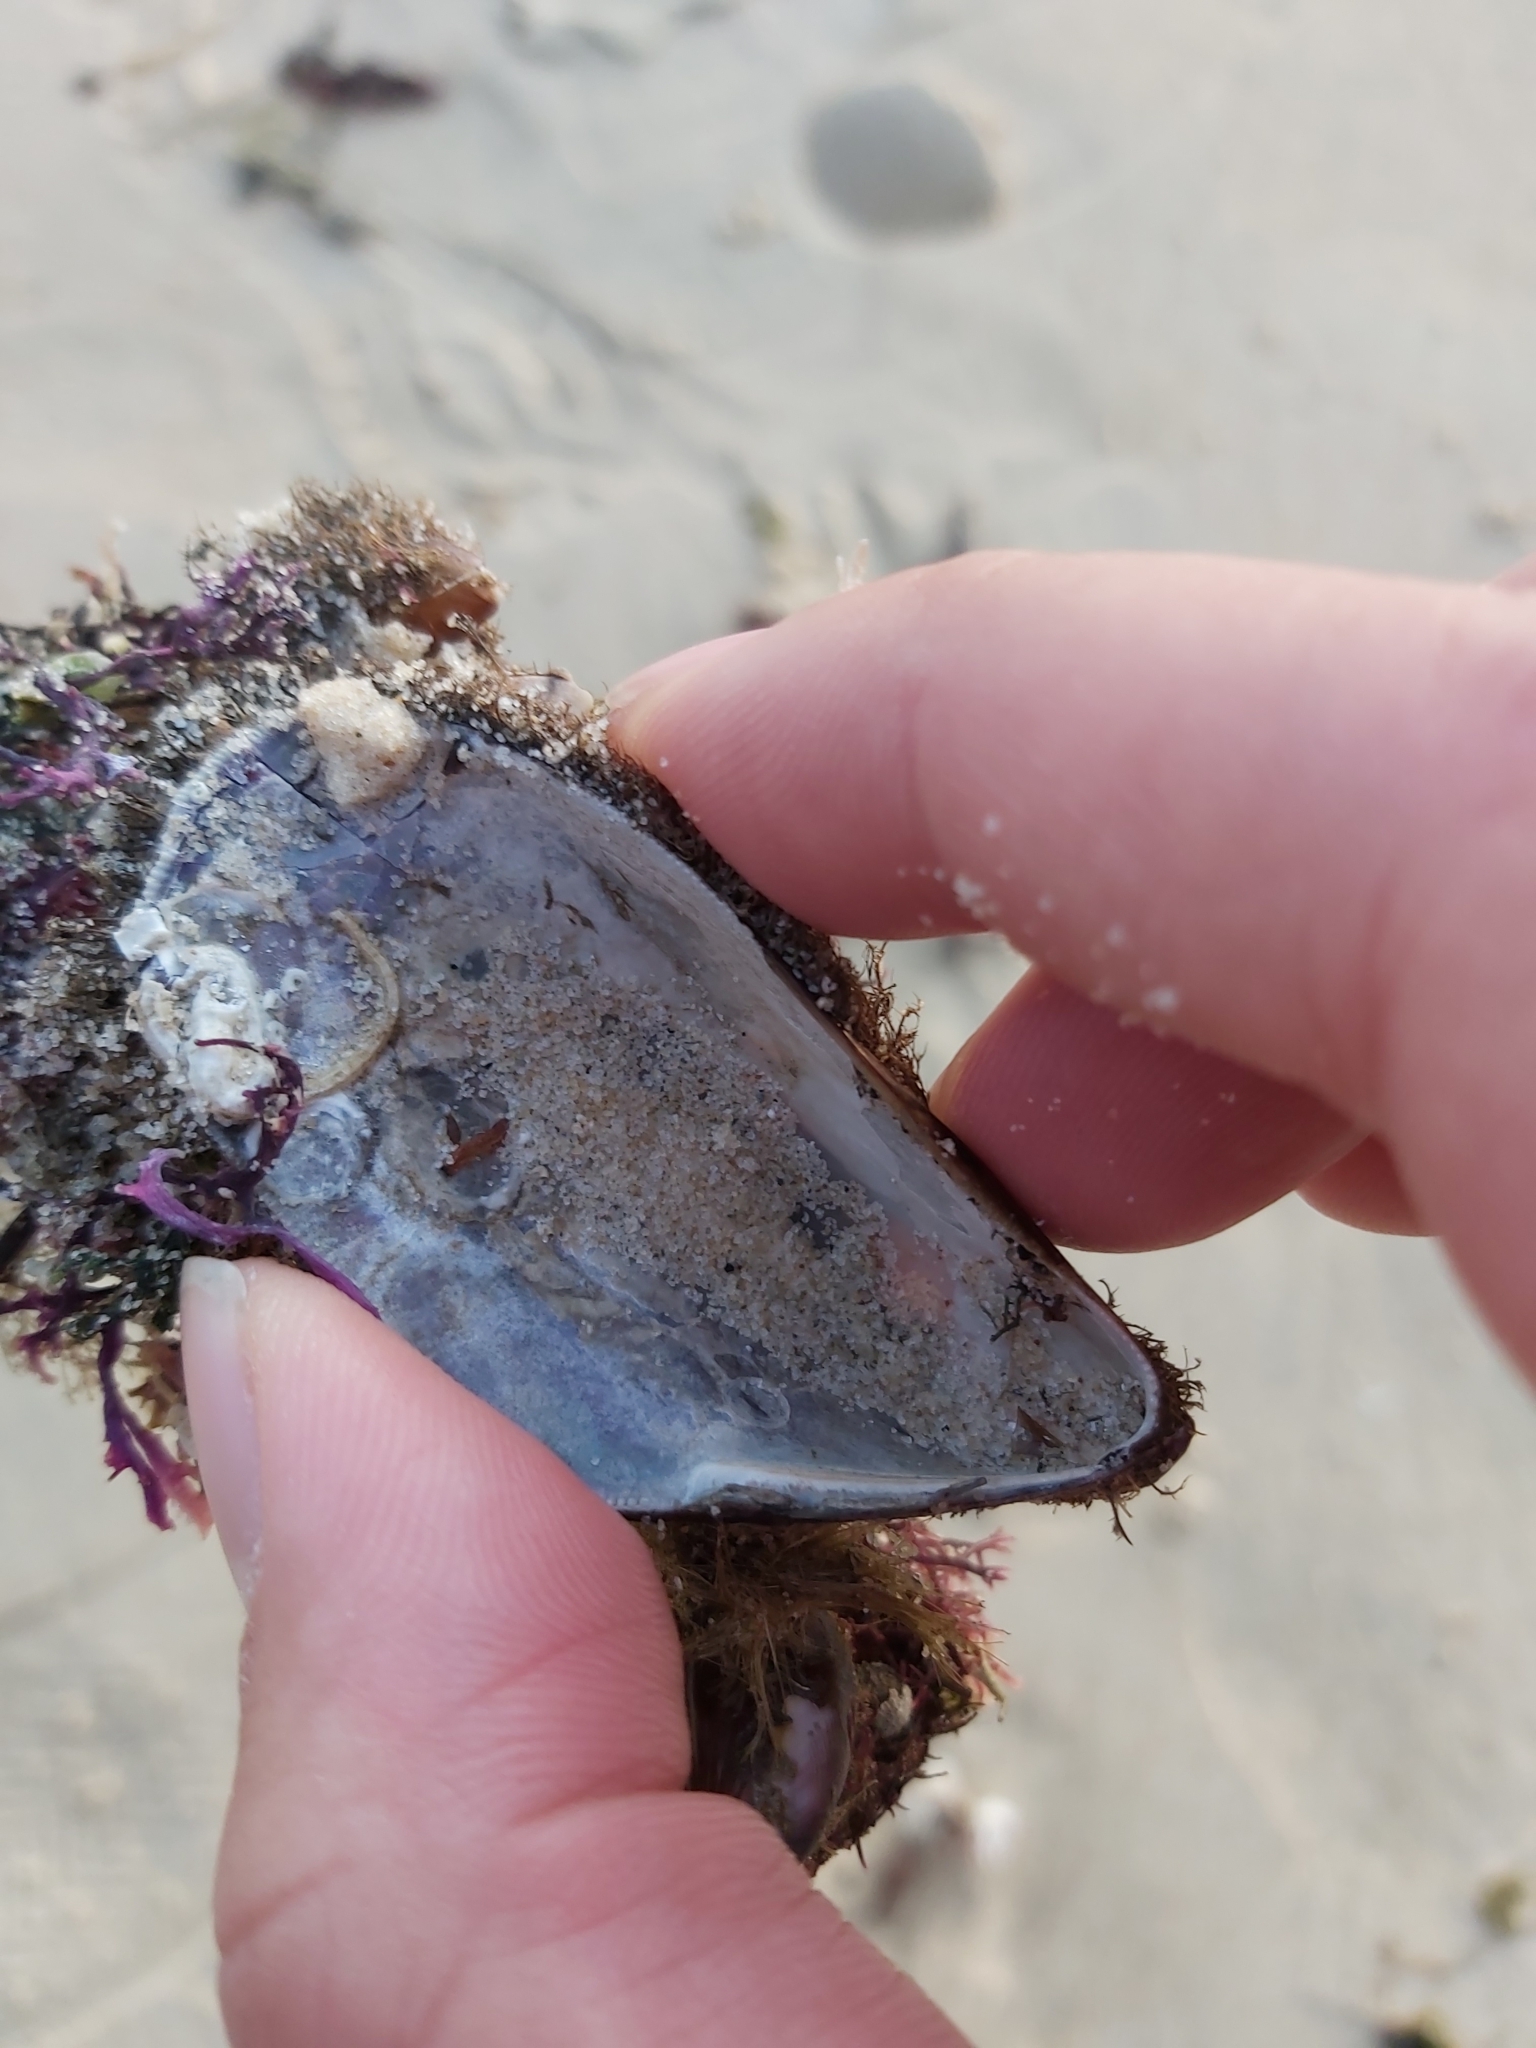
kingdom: Animalia
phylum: Mollusca
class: Bivalvia
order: Mytilida
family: Mytilidae
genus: Trichomya
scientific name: Trichomya hirsuta
